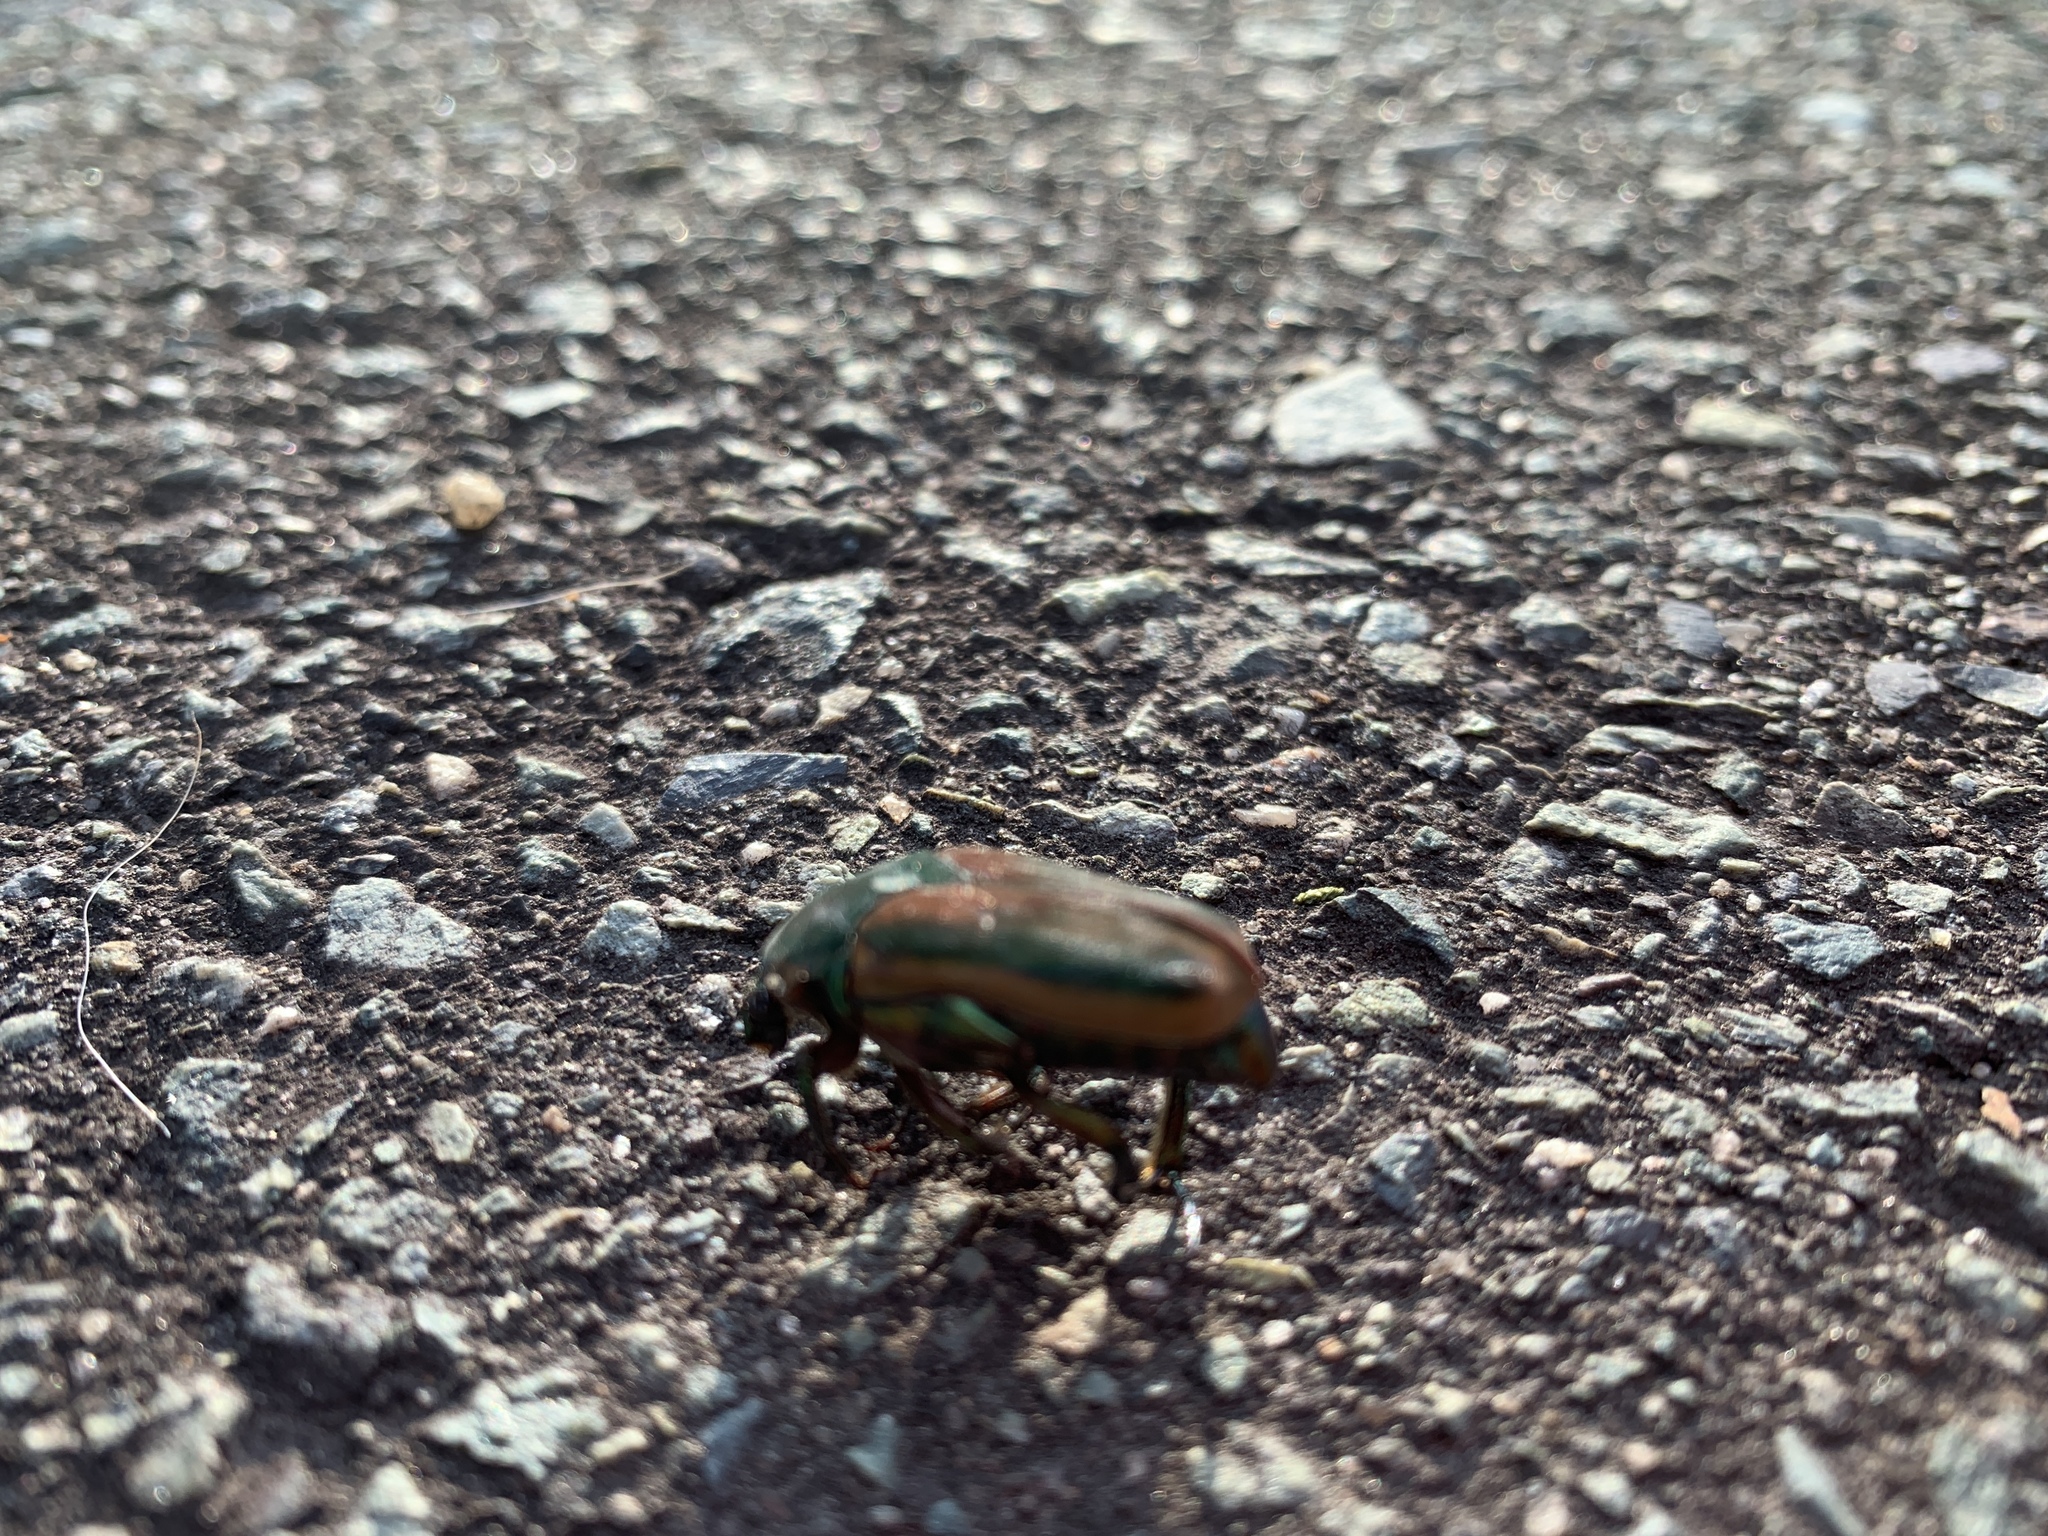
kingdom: Animalia
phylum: Arthropoda
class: Insecta
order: Coleoptera
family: Scarabaeidae
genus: Cotinis
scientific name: Cotinis nitida
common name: Common green june beetle
